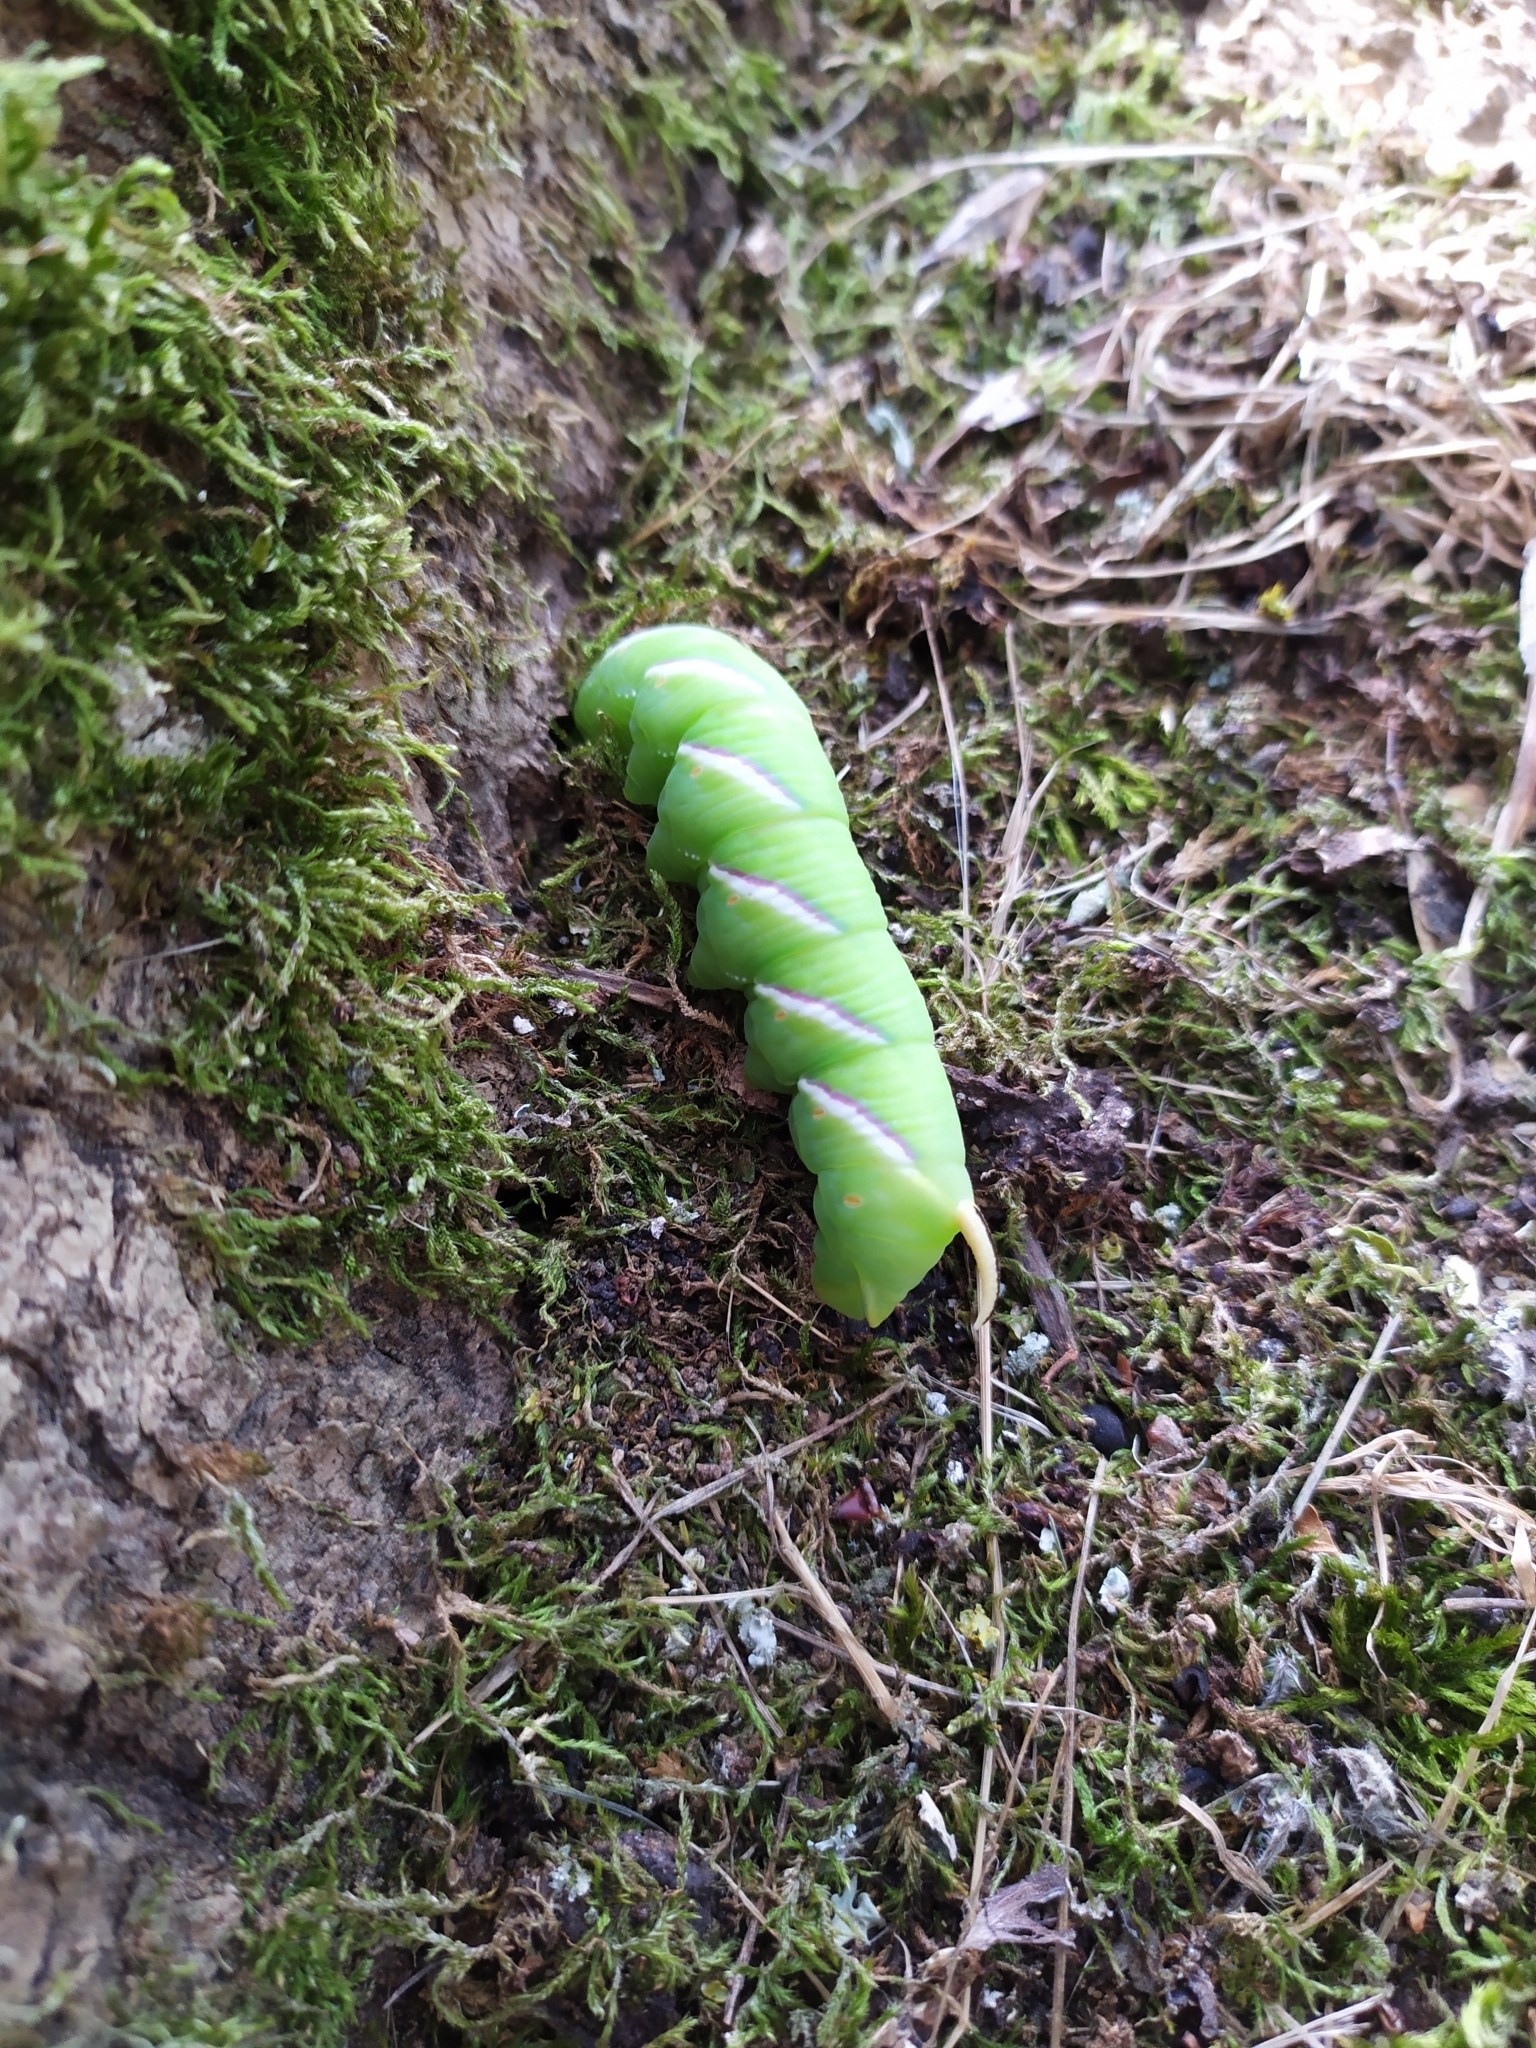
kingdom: Animalia
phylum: Arthropoda
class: Insecta
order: Lepidoptera
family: Sphingidae
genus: Sphinx
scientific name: Sphinx ligustri
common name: Privet hawk-moth
